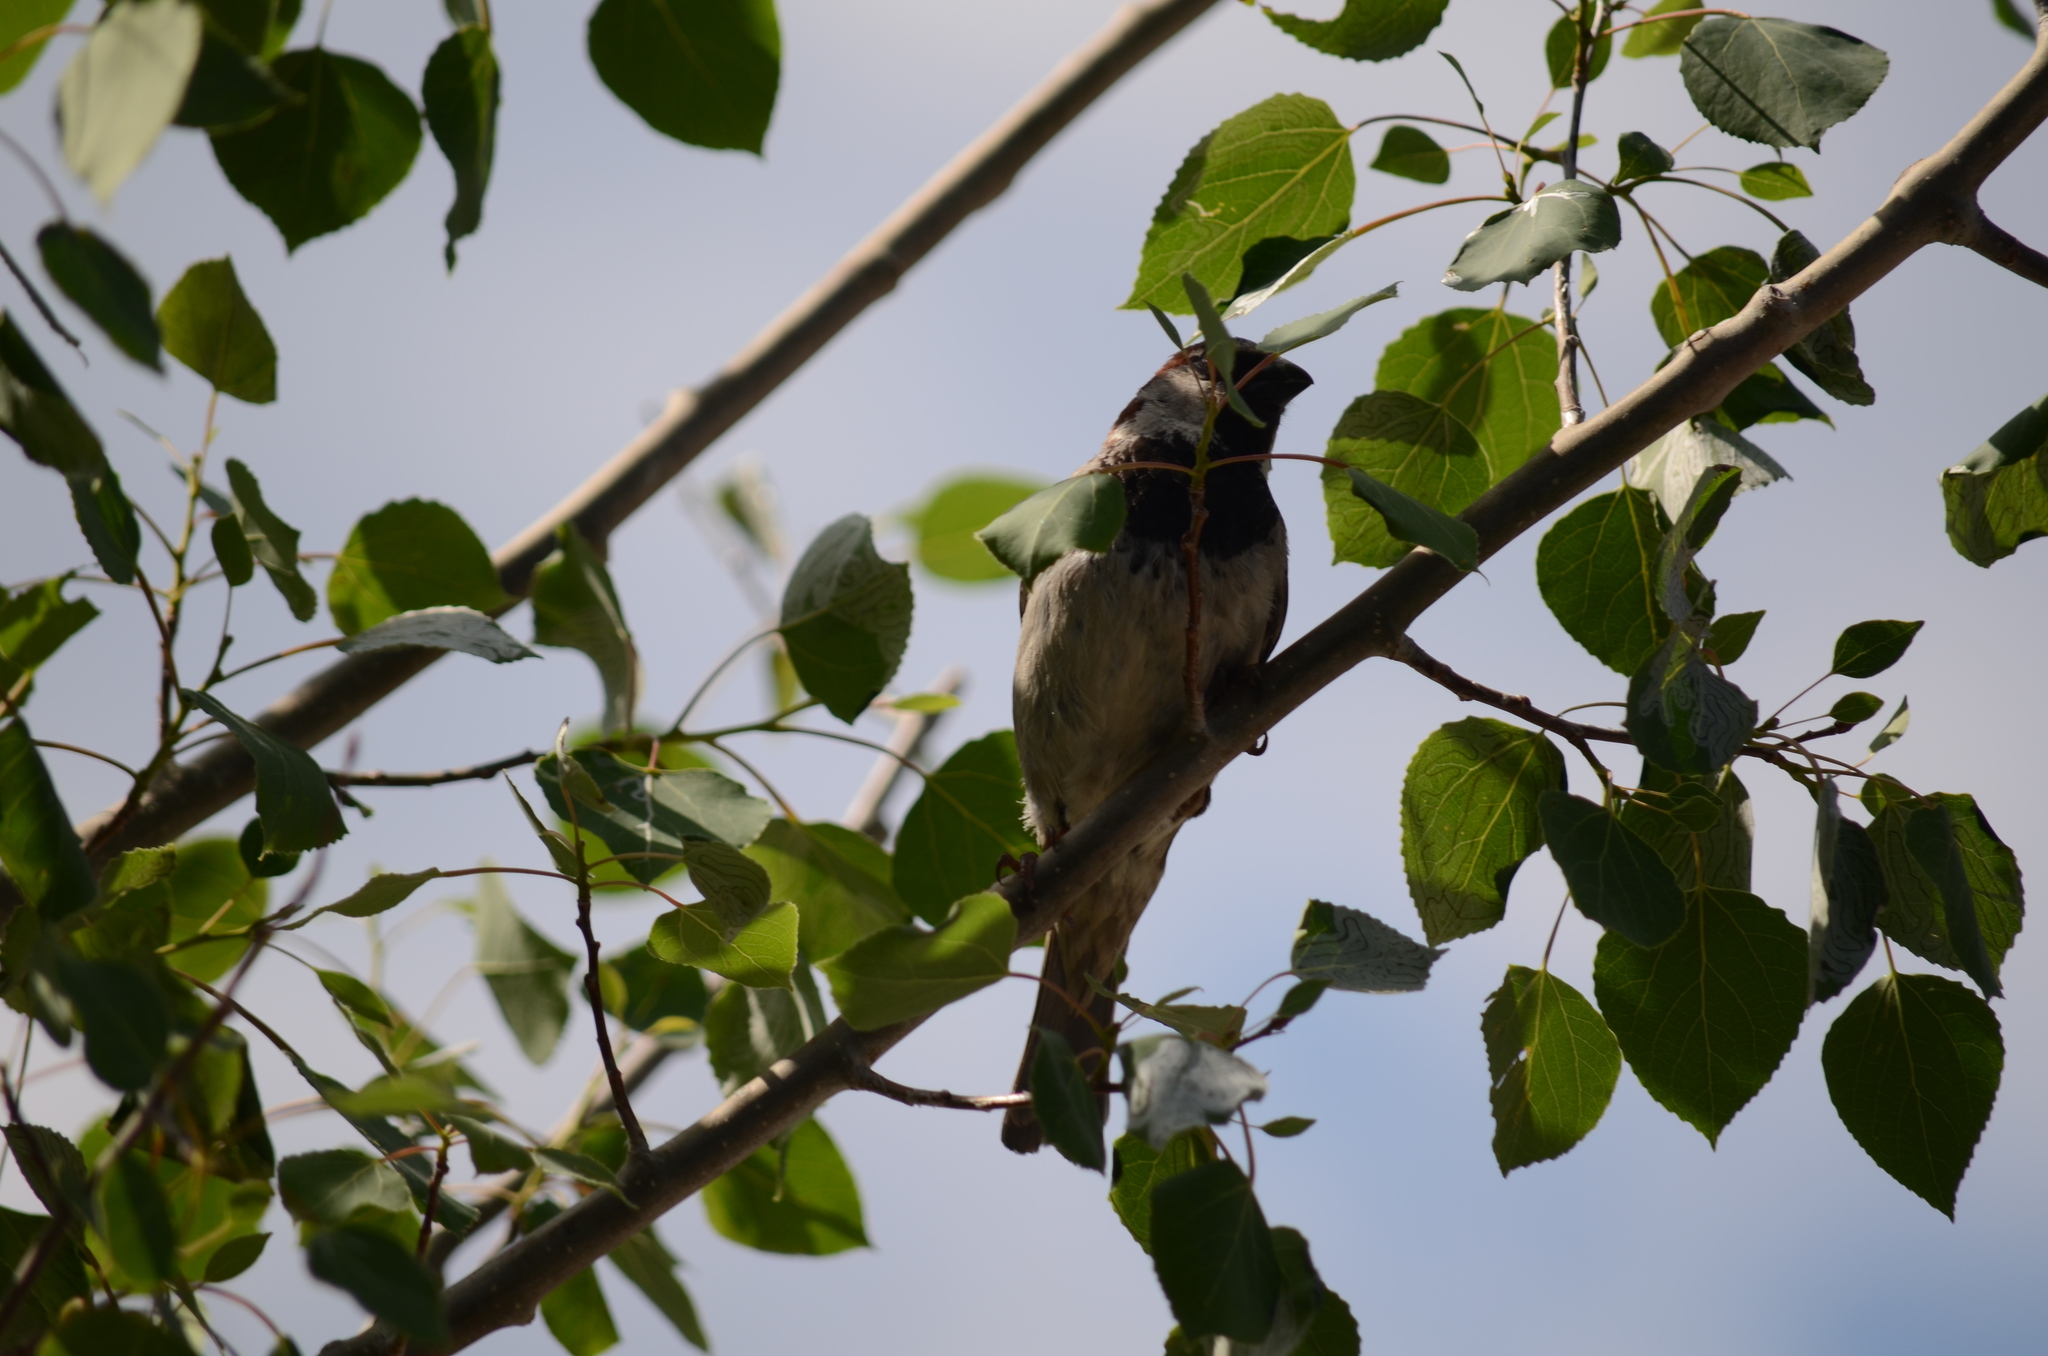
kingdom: Animalia
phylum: Chordata
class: Aves
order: Passeriformes
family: Passeridae
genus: Passer
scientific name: Passer domesticus
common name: House sparrow
